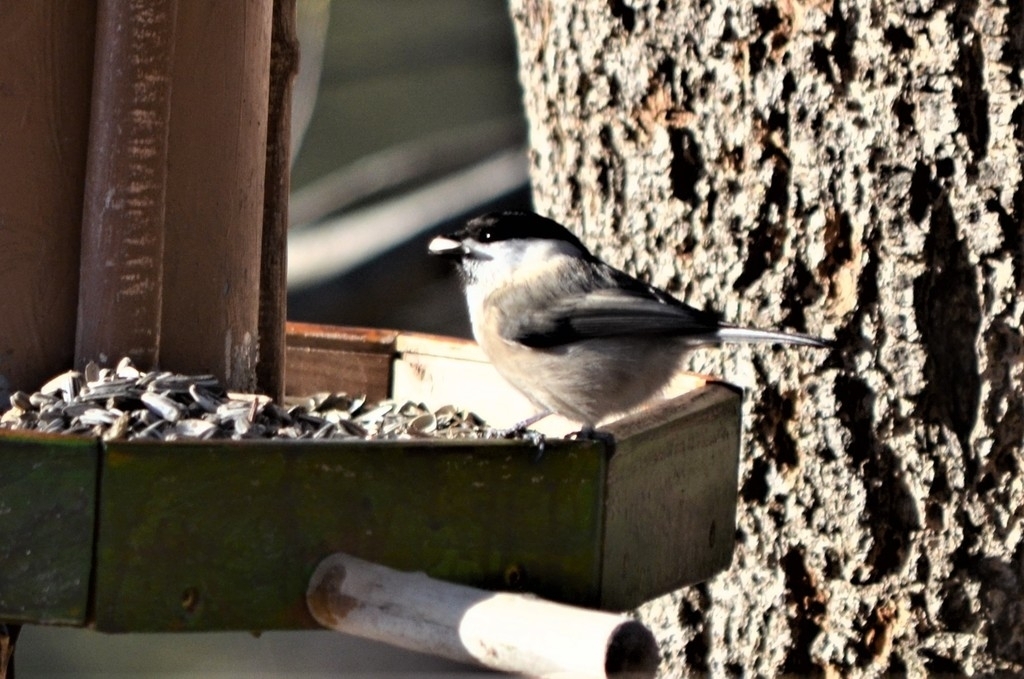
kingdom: Animalia
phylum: Chordata
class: Aves
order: Passeriformes
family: Paridae
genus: Poecile
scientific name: Poecile montanus
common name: Willow tit
